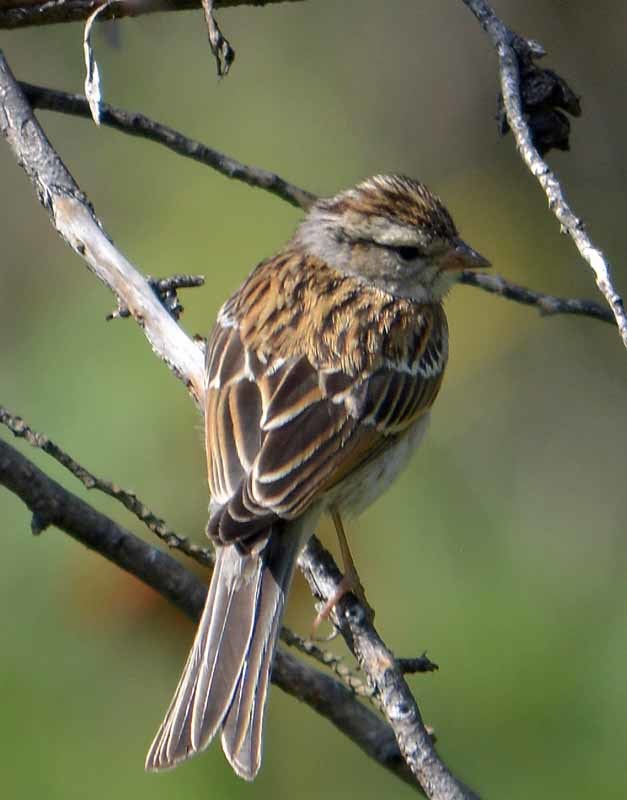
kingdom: Animalia
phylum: Chordata
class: Aves
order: Passeriformes
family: Passerellidae
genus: Spizella
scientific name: Spizella passerina
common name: Chipping sparrow
